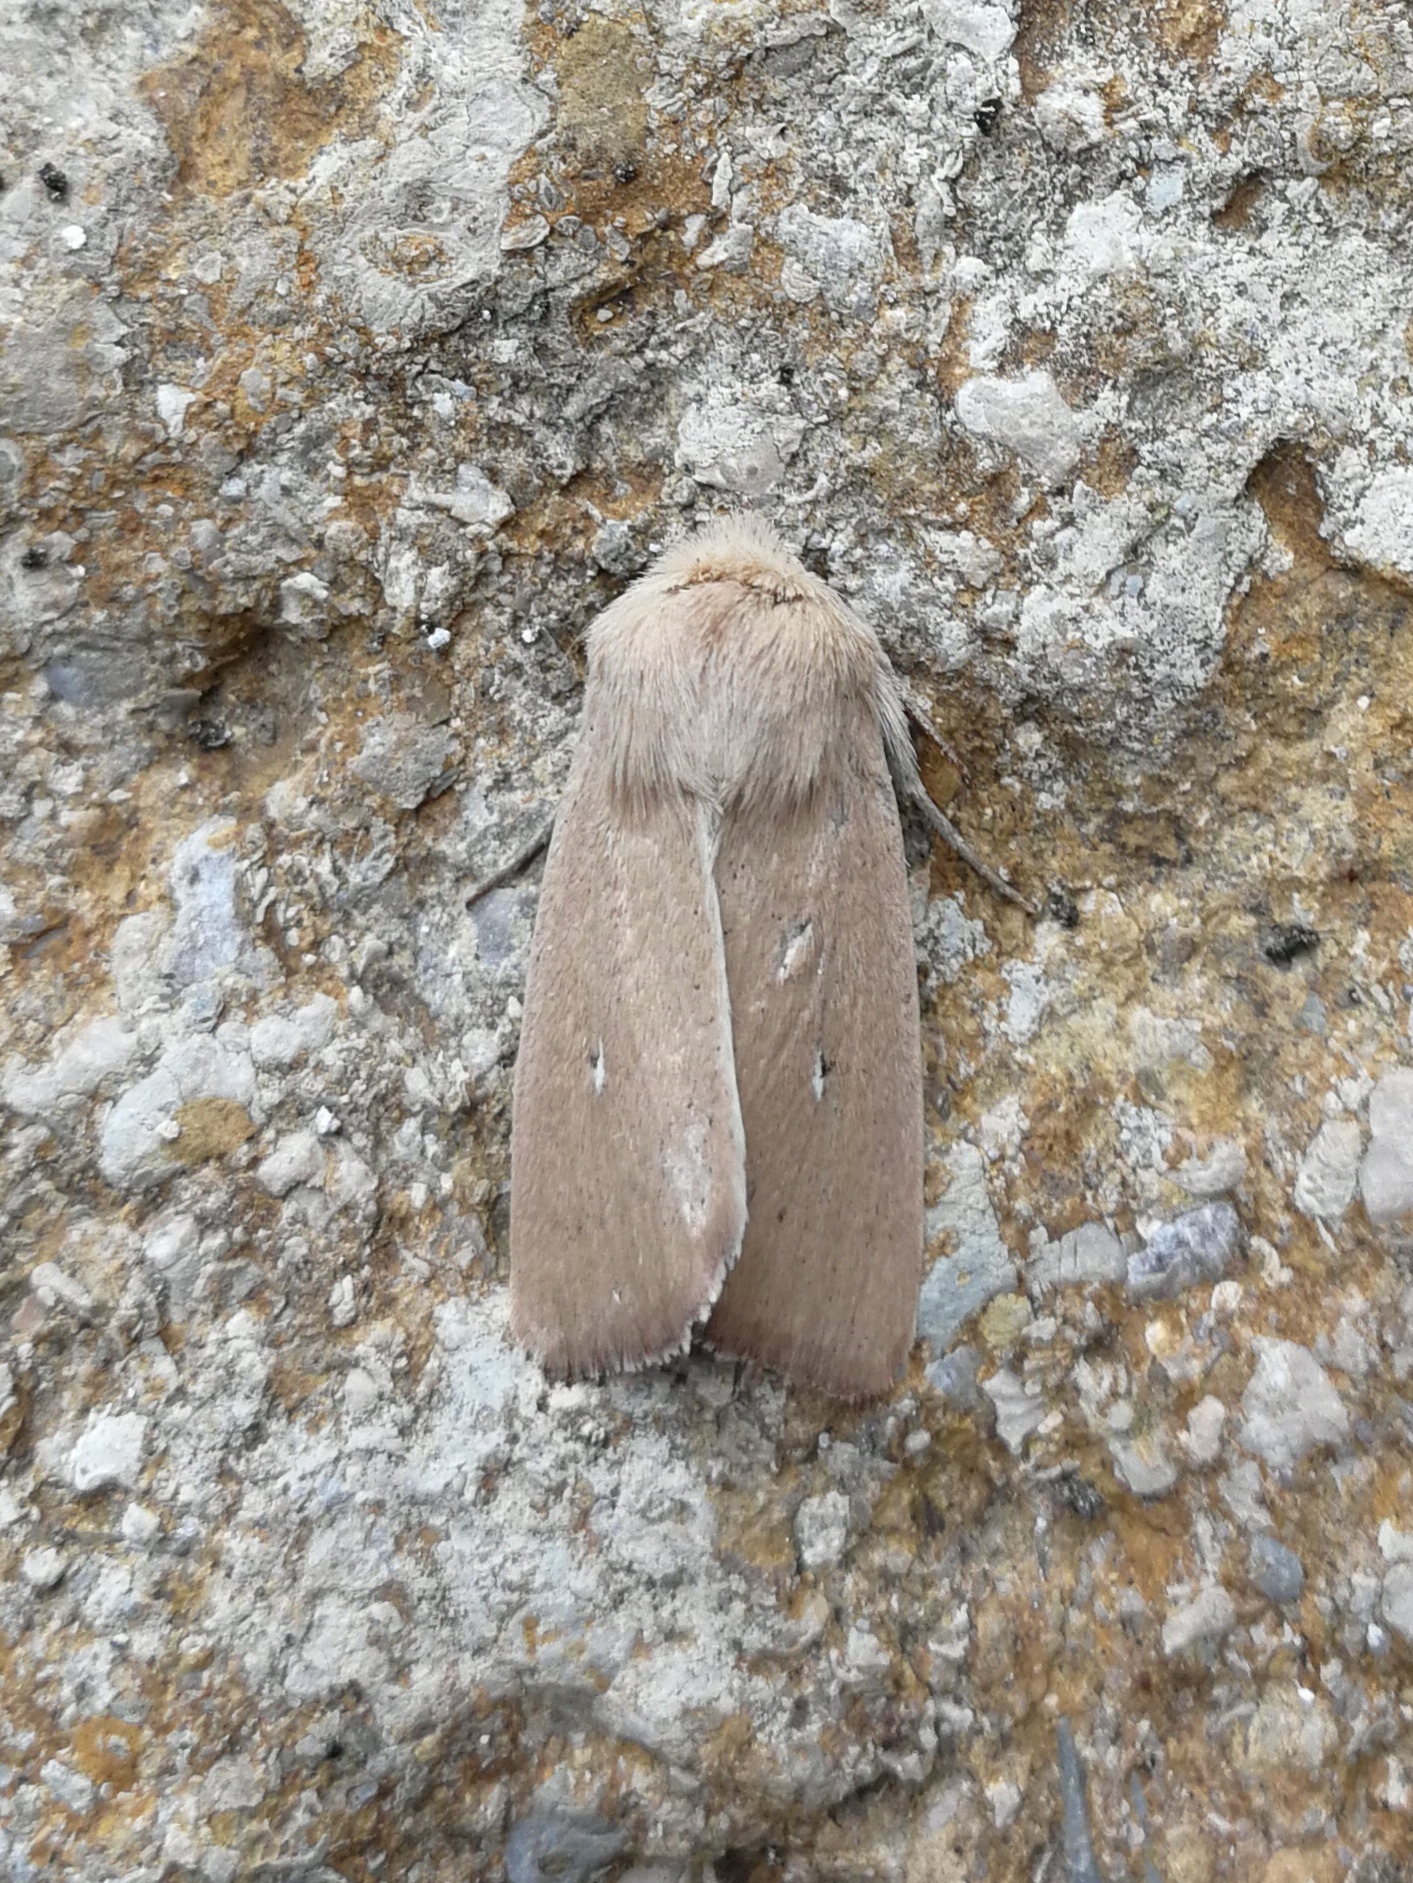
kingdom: Animalia
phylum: Arthropoda
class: Insecta
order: Lepidoptera
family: Noctuidae
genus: Mythimna
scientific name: Mythimna sicula
